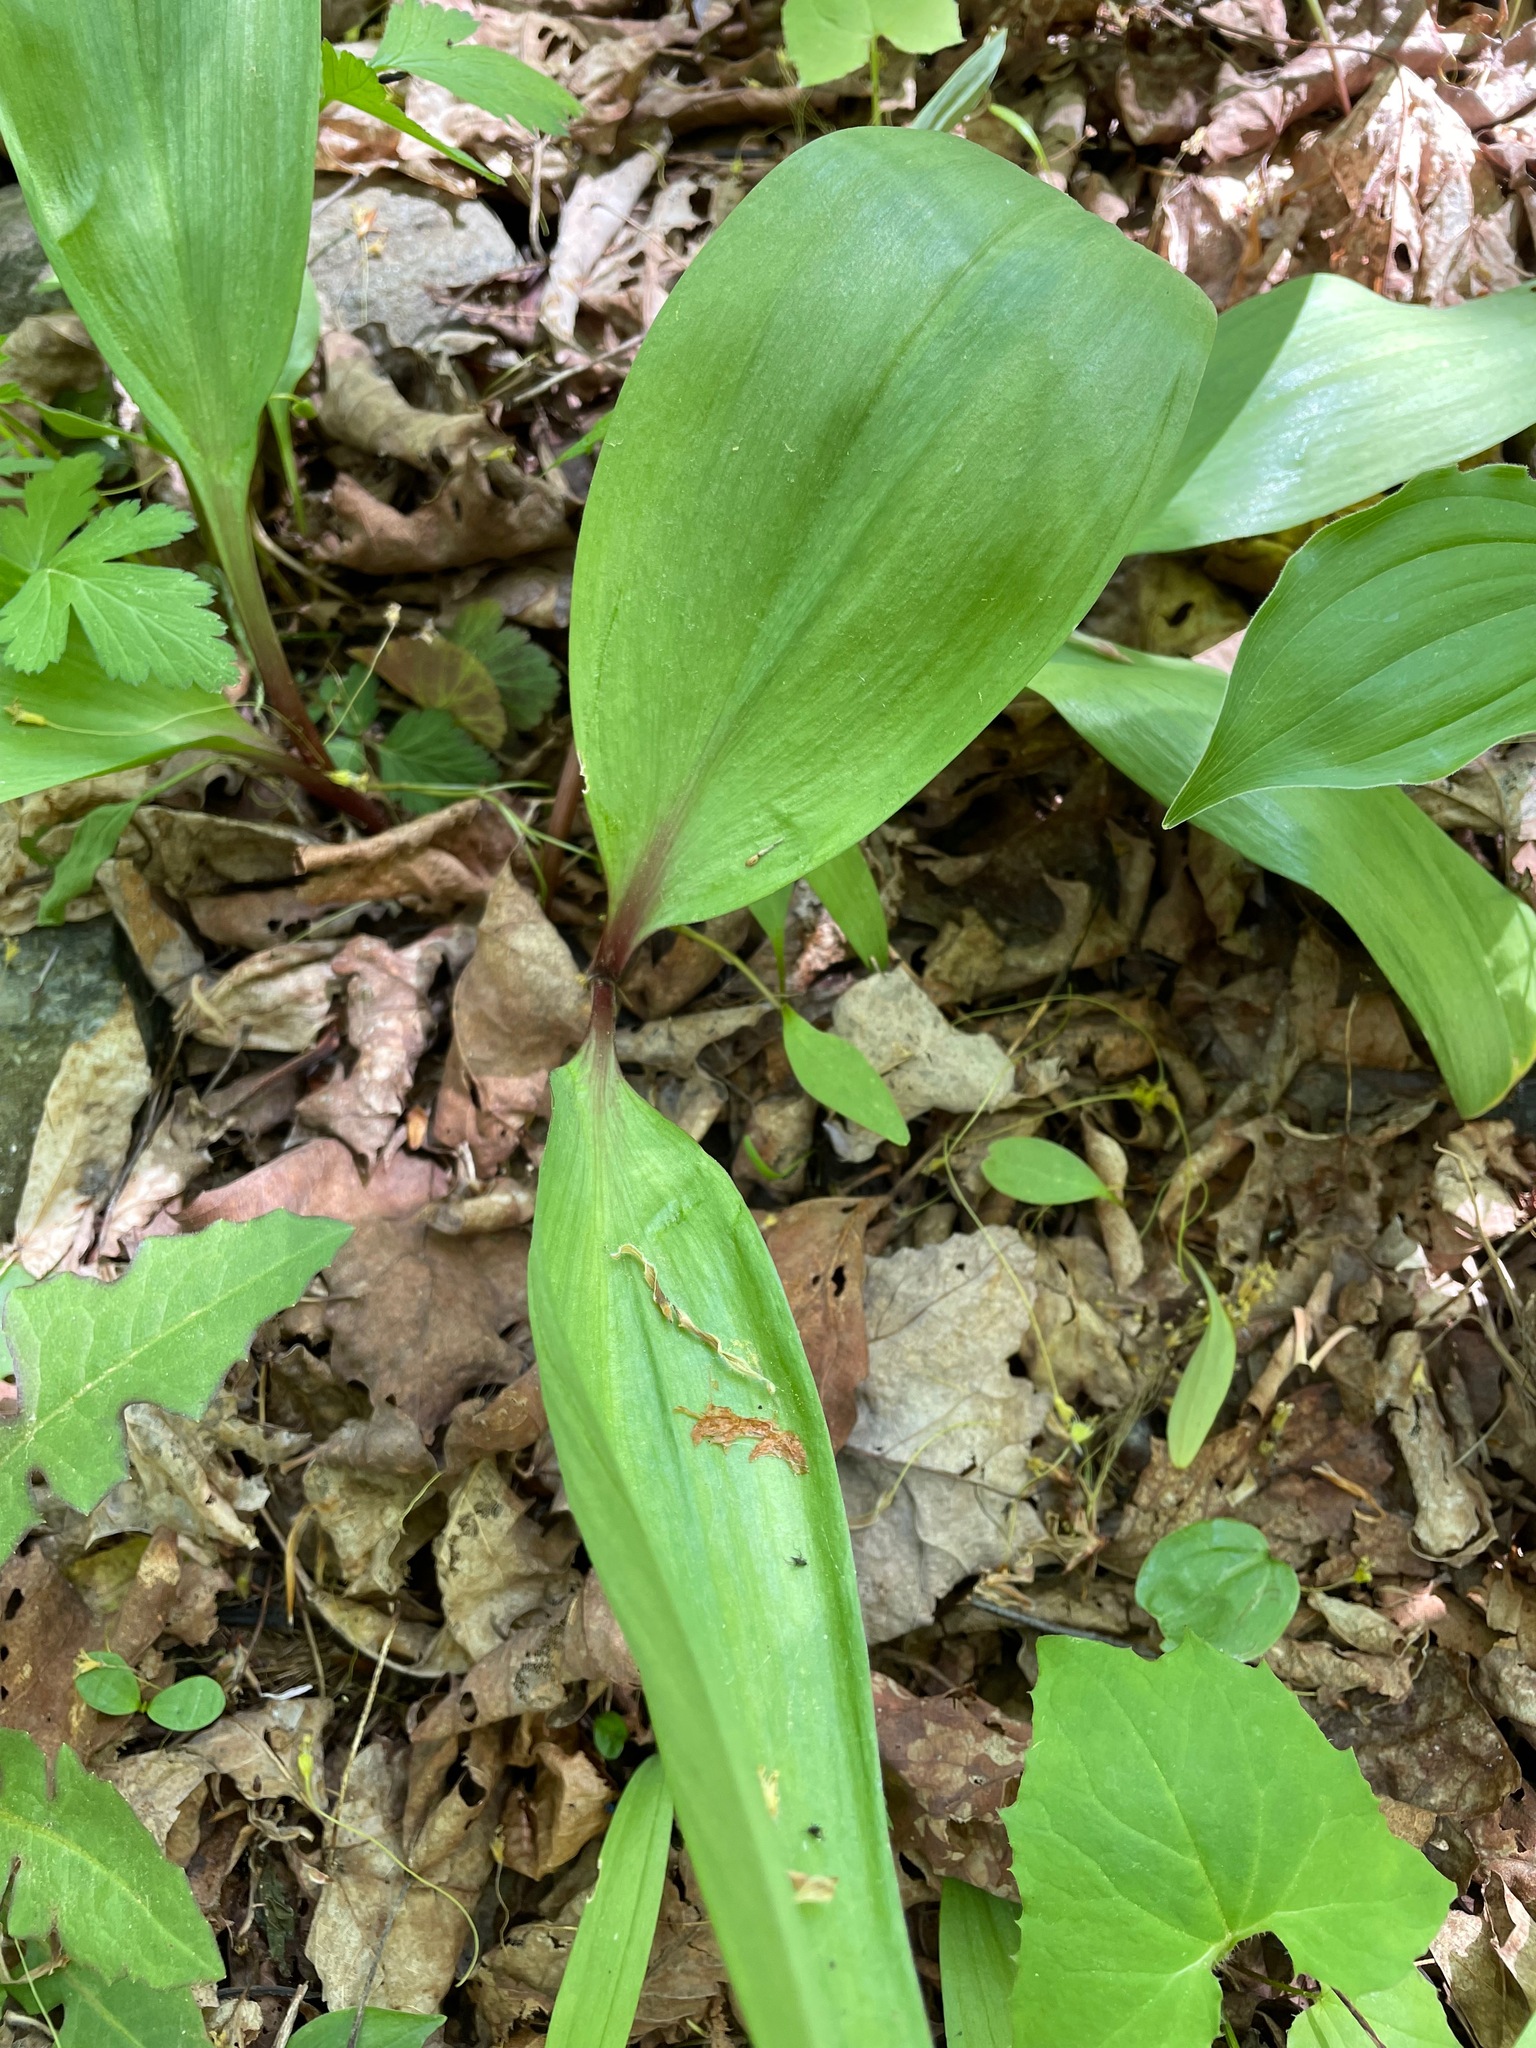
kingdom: Plantae
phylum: Tracheophyta
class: Liliopsida
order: Asparagales
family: Amaryllidaceae
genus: Allium
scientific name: Allium tricoccum
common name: Ramp
